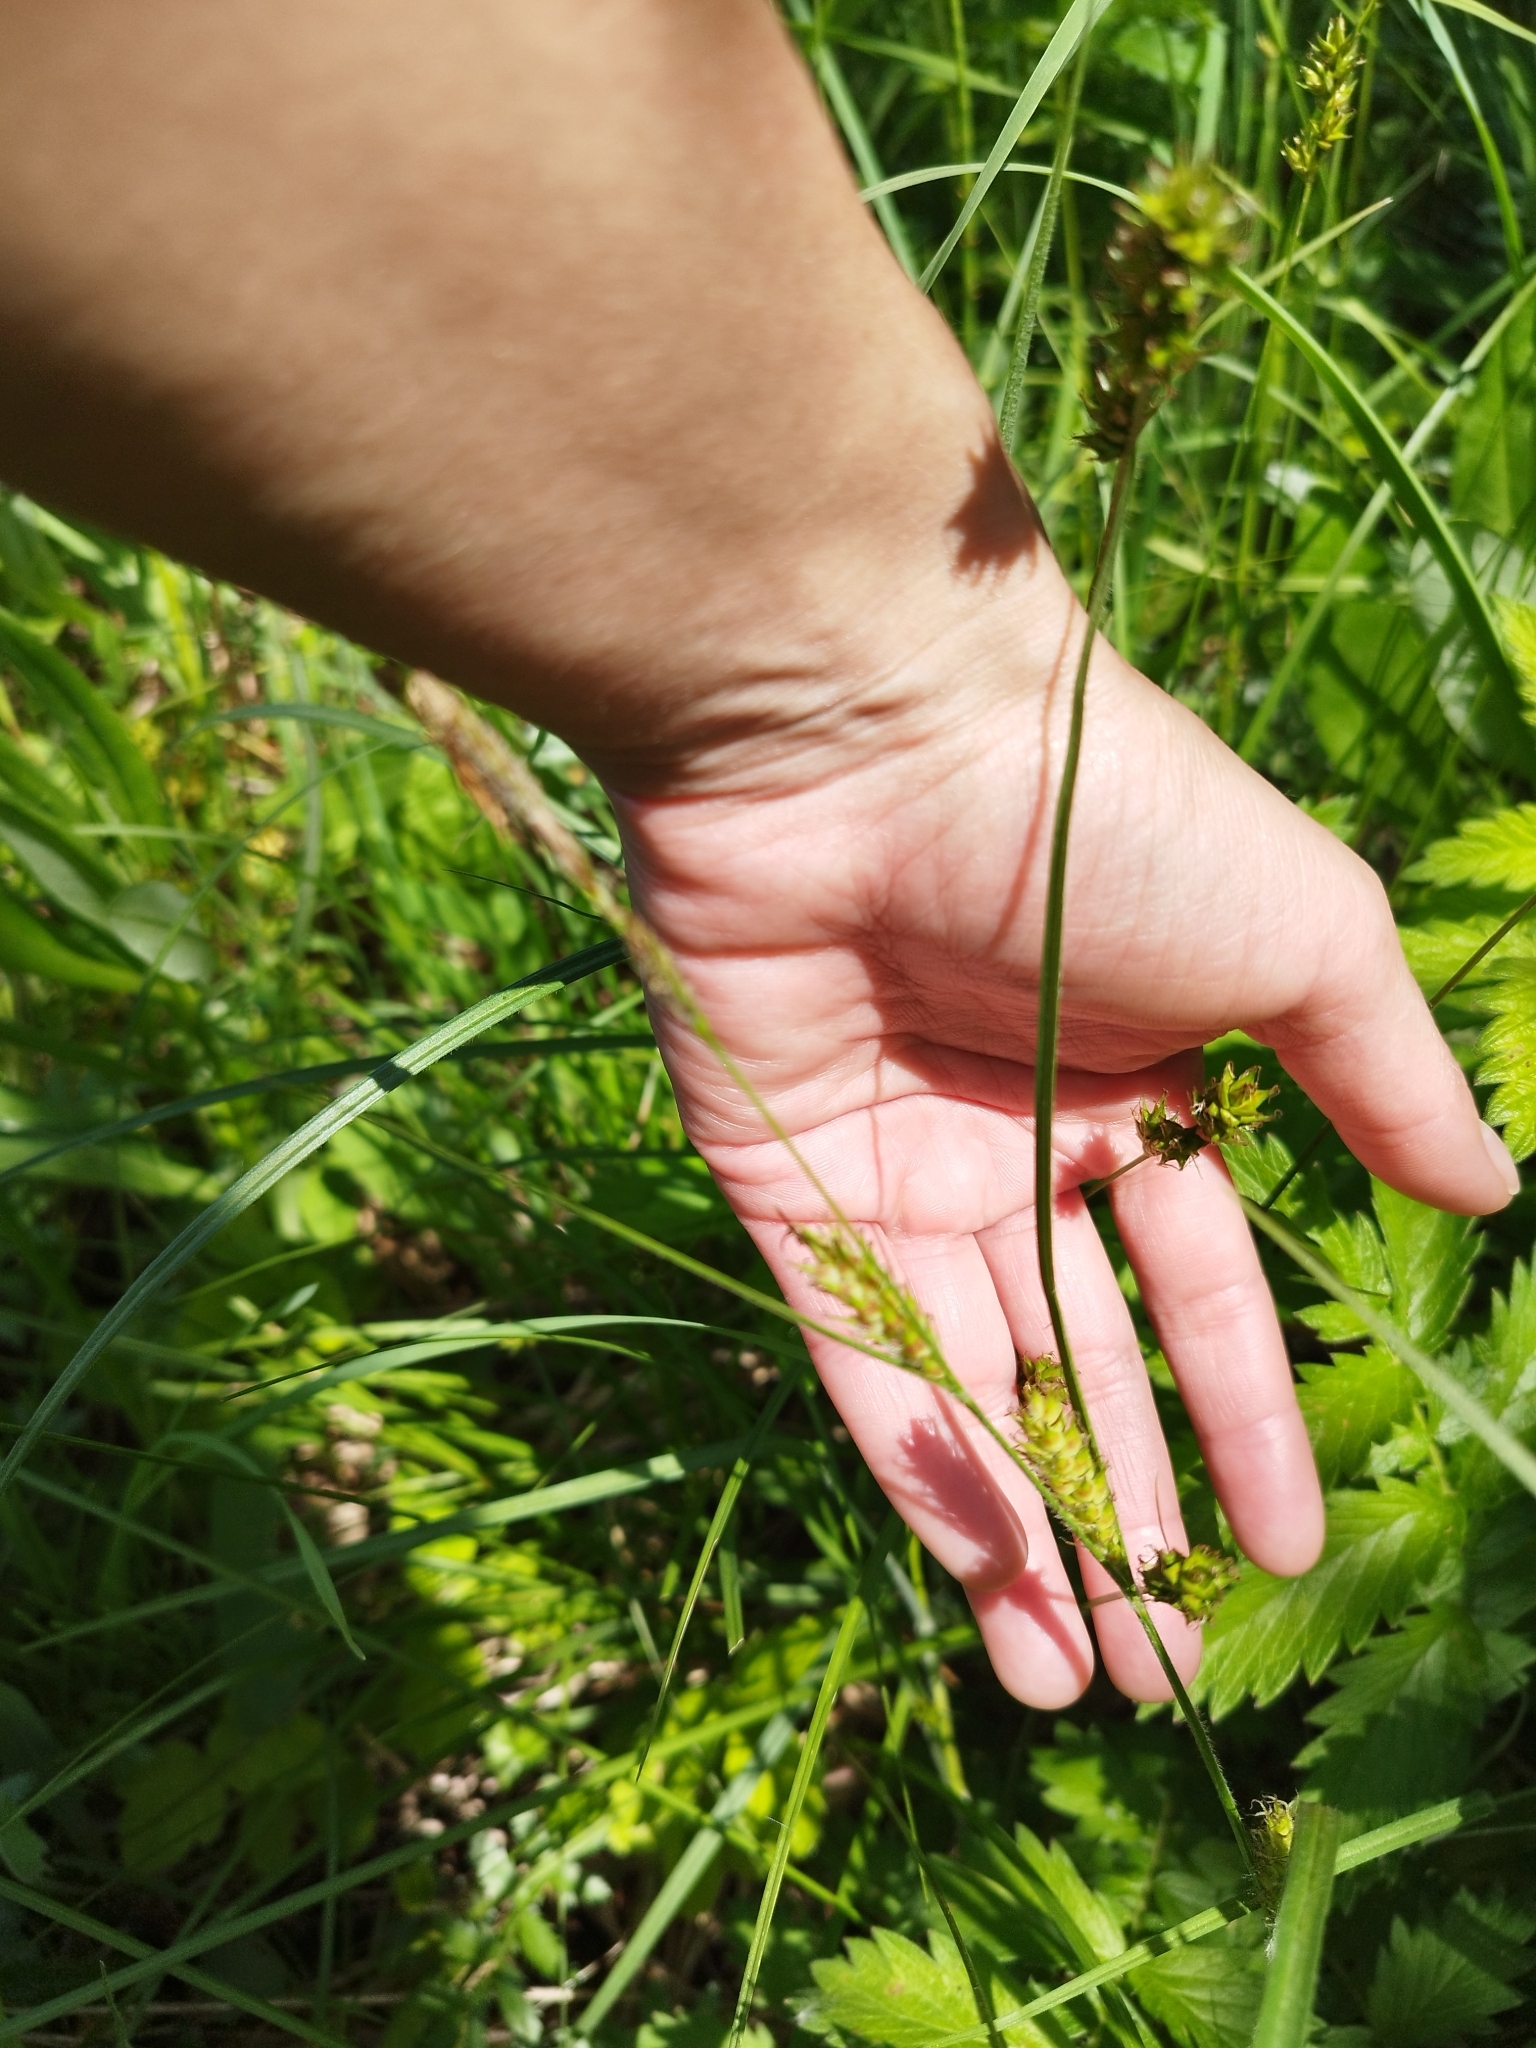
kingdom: Plantae
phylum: Tracheophyta
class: Liliopsida
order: Poales
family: Cyperaceae
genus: Carex
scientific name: Carex hirta
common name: Hairy sedge
